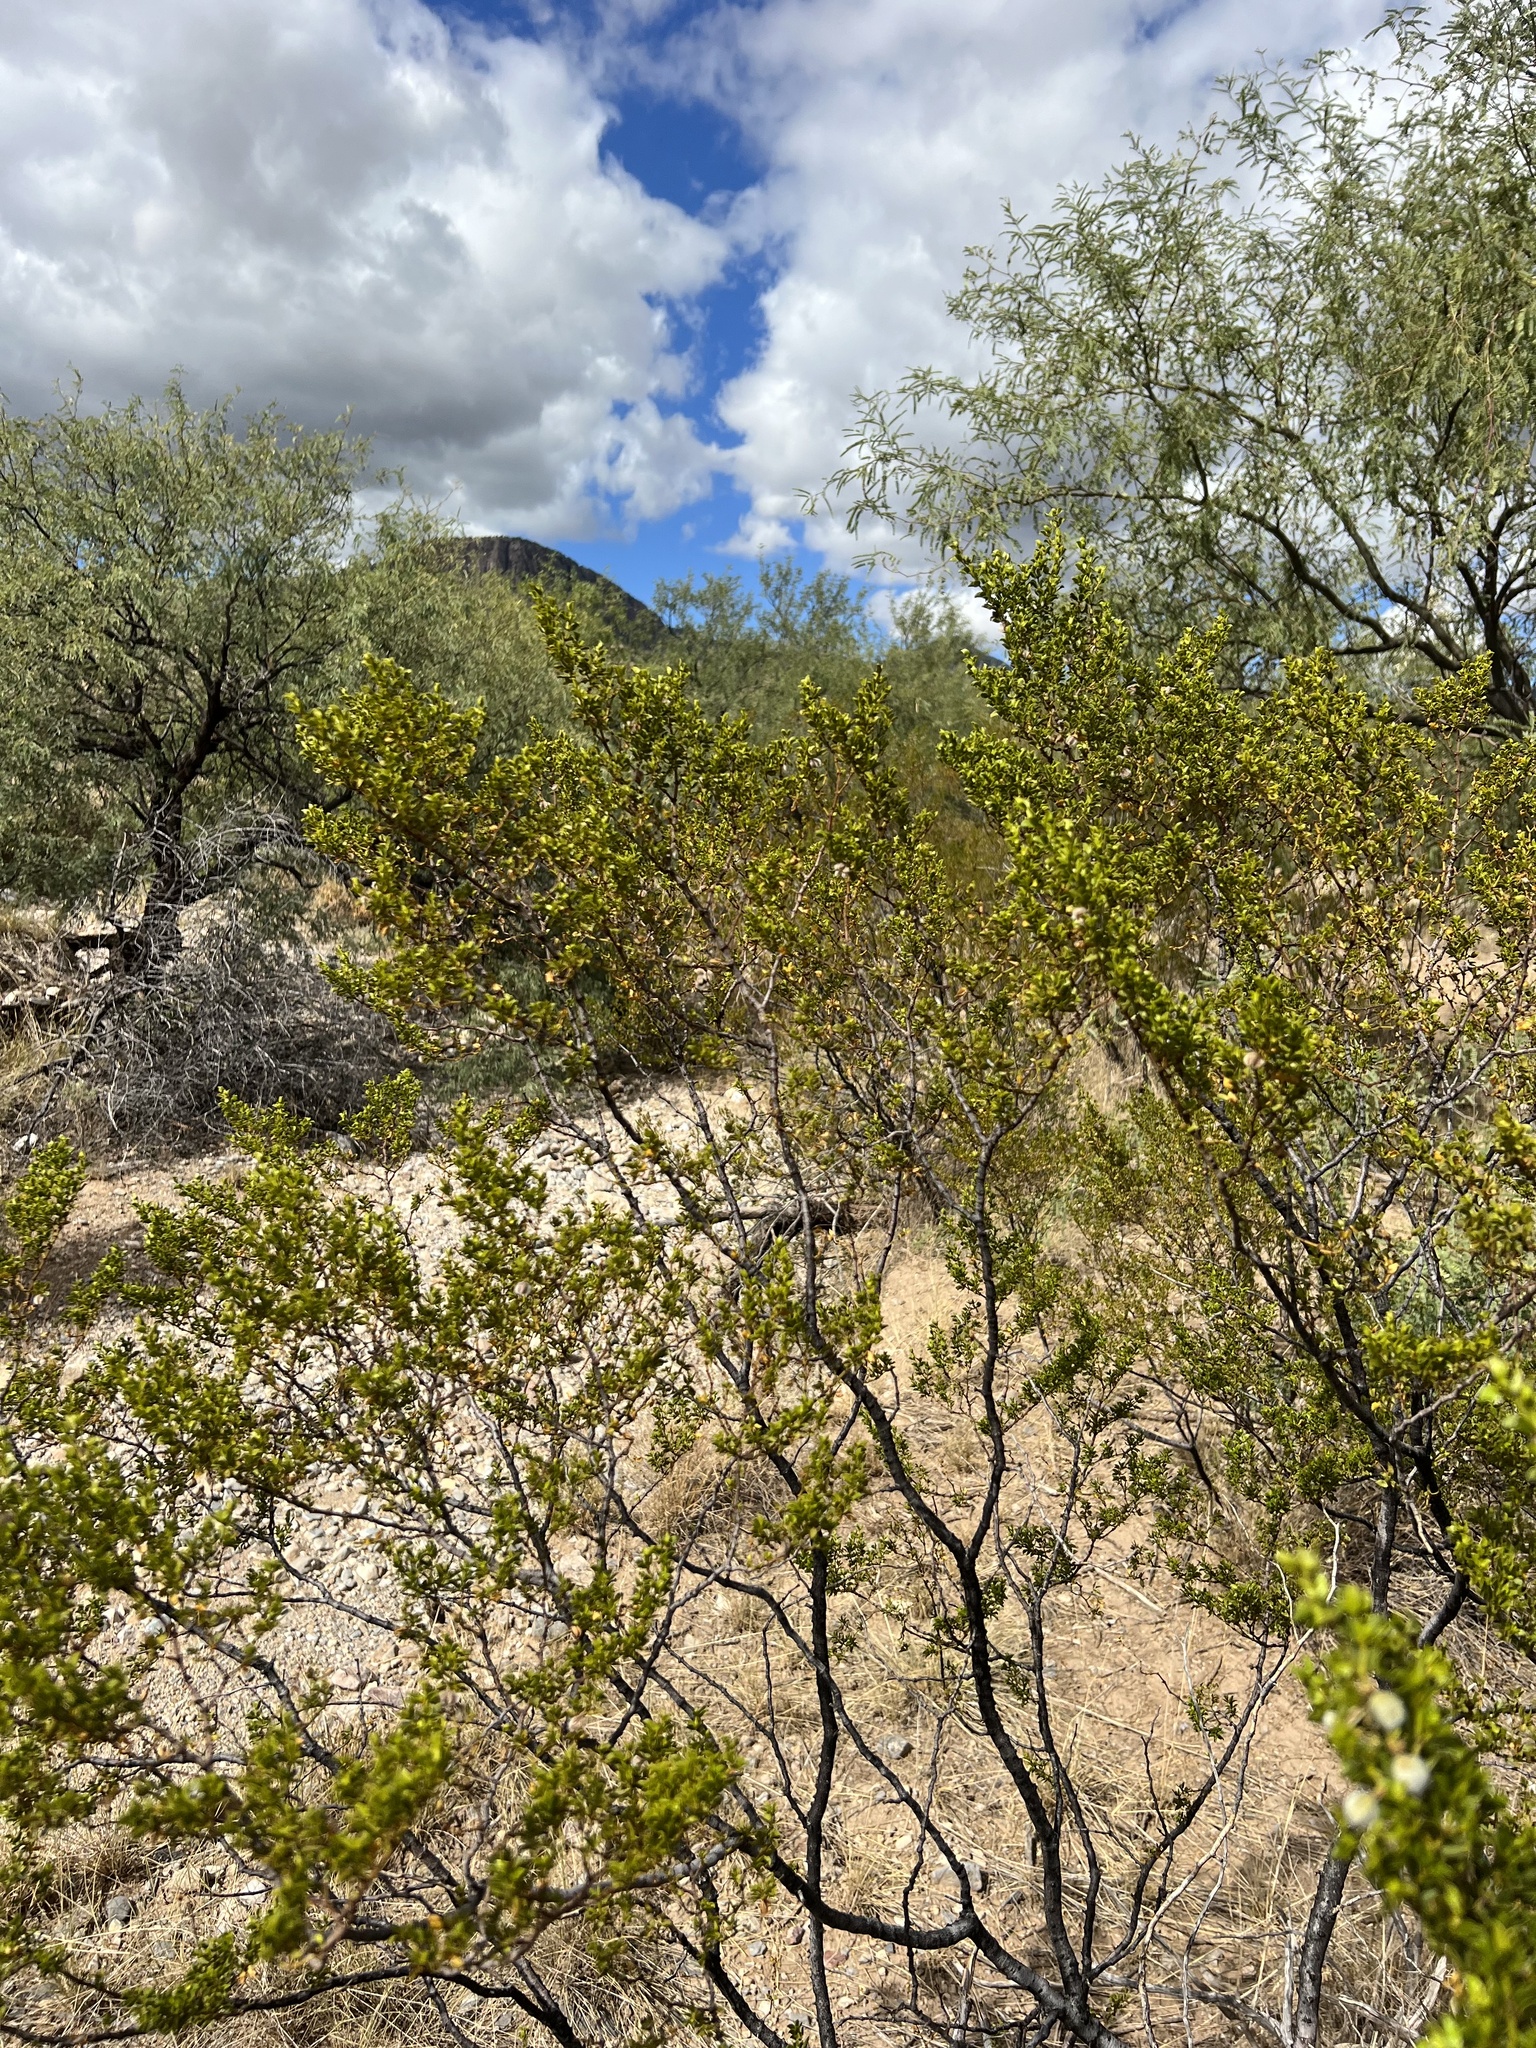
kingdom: Plantae
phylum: Tracheophyta
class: Magnoliopsida
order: Zygophyllales
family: Zygophyllaceae
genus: Larrea
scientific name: Larrea tridentata
